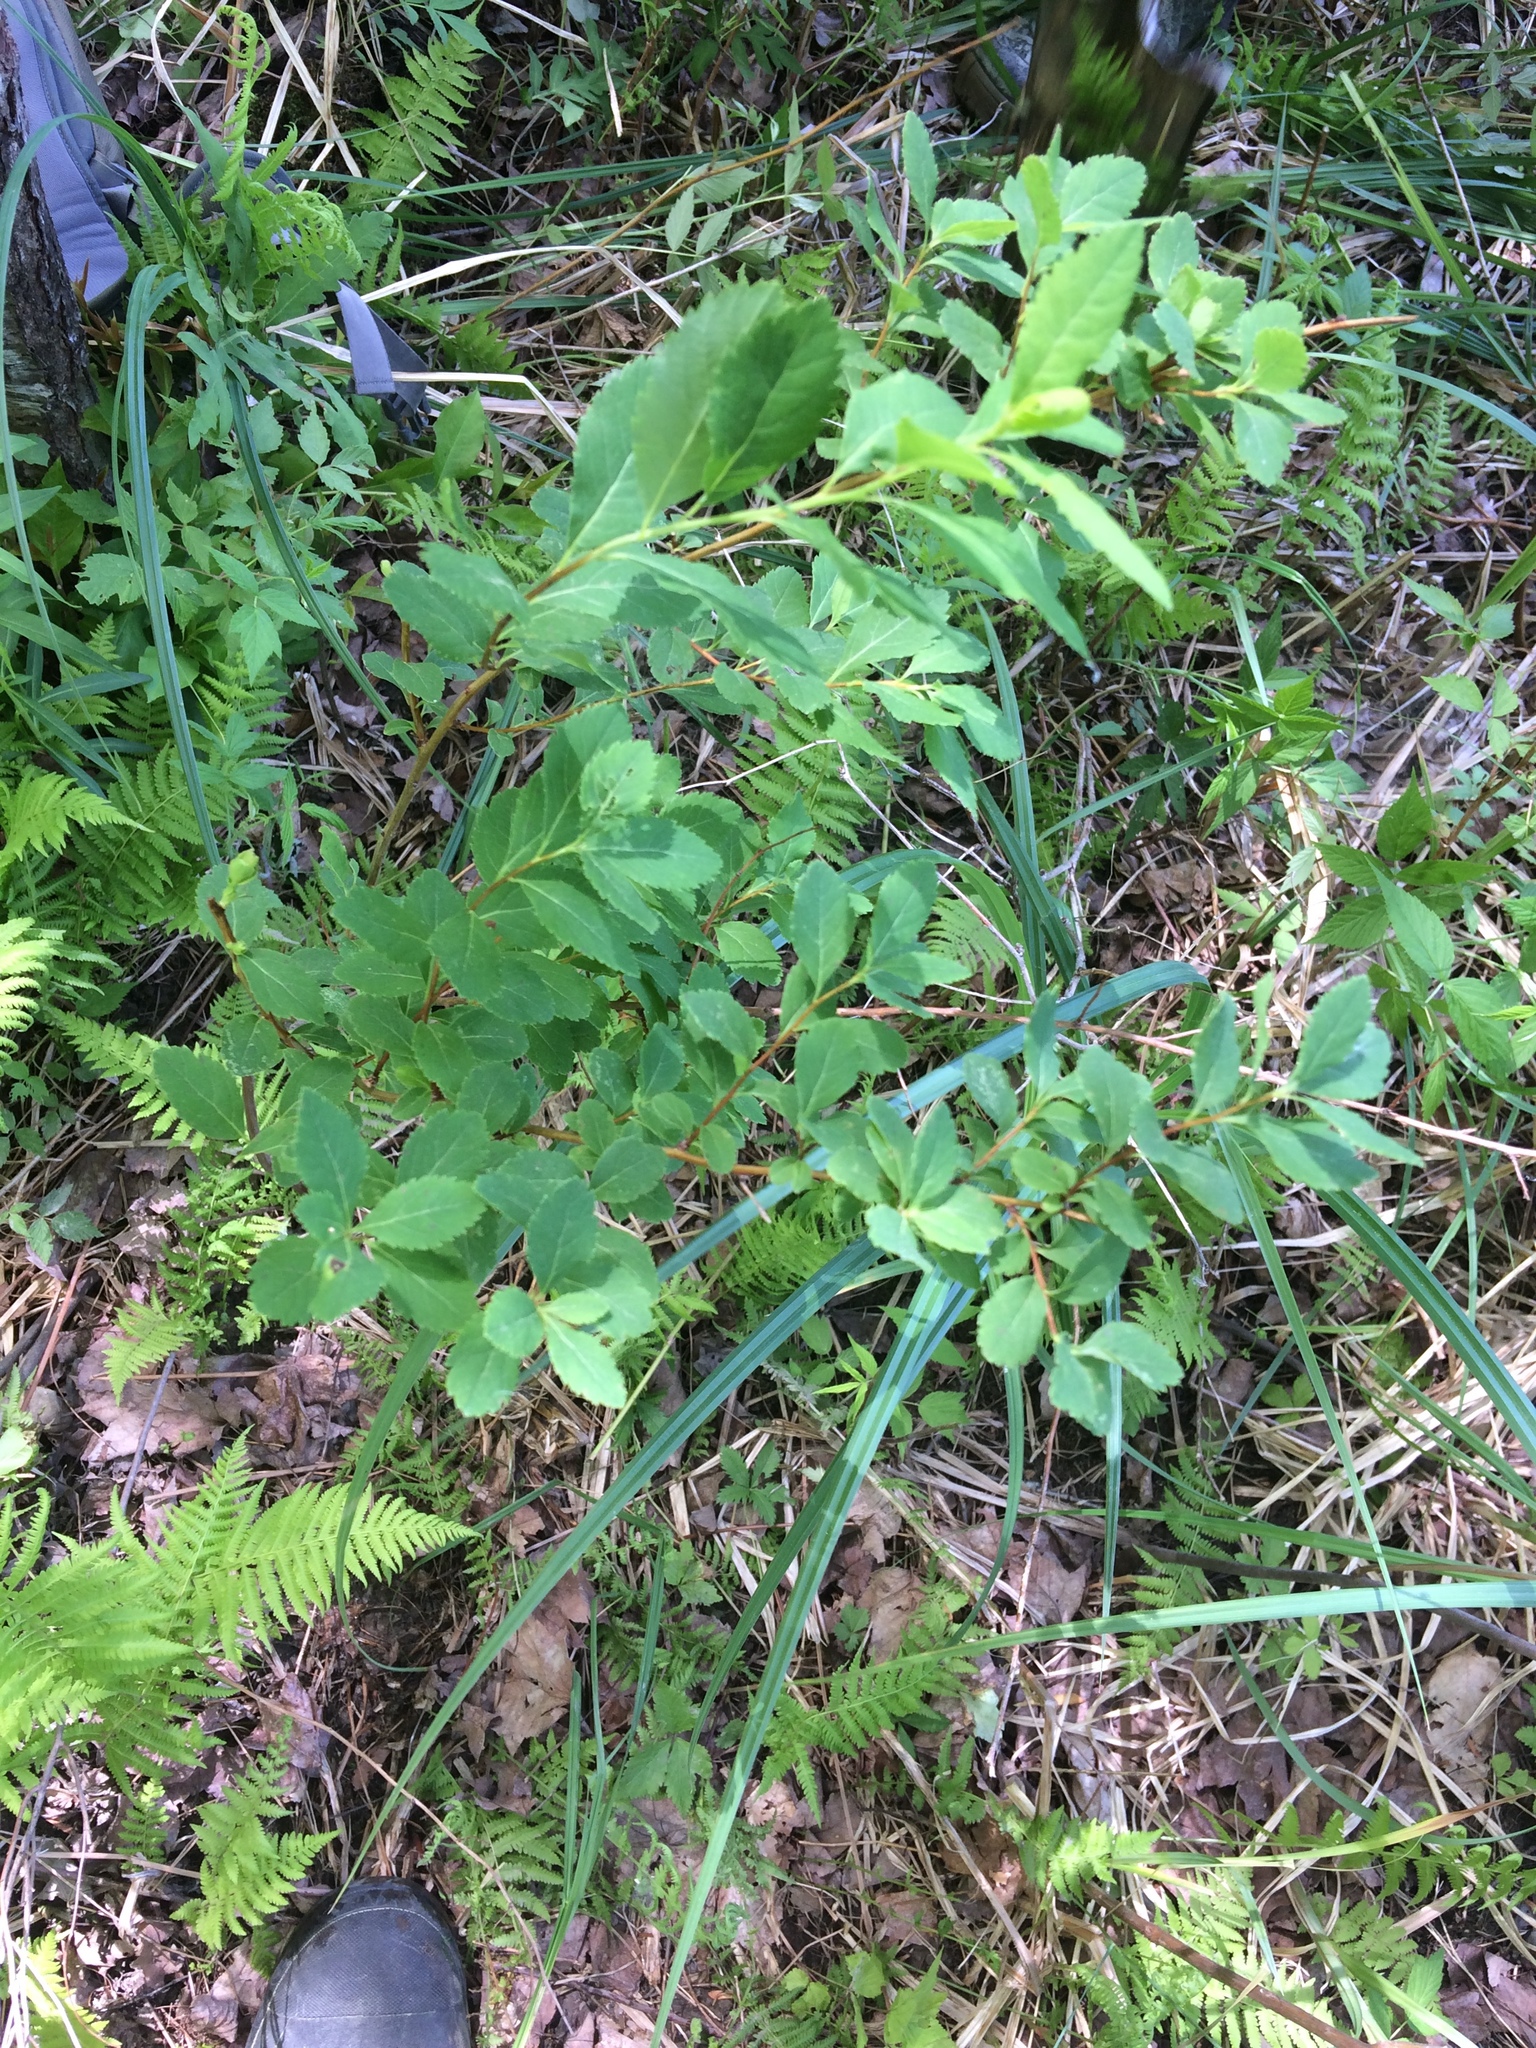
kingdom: Plantae
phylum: Tracheophyta
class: Magnoliopsida
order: Rosales
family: Rosaceae
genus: Spiraea
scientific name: Spiraea alba
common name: Pale bridewort
